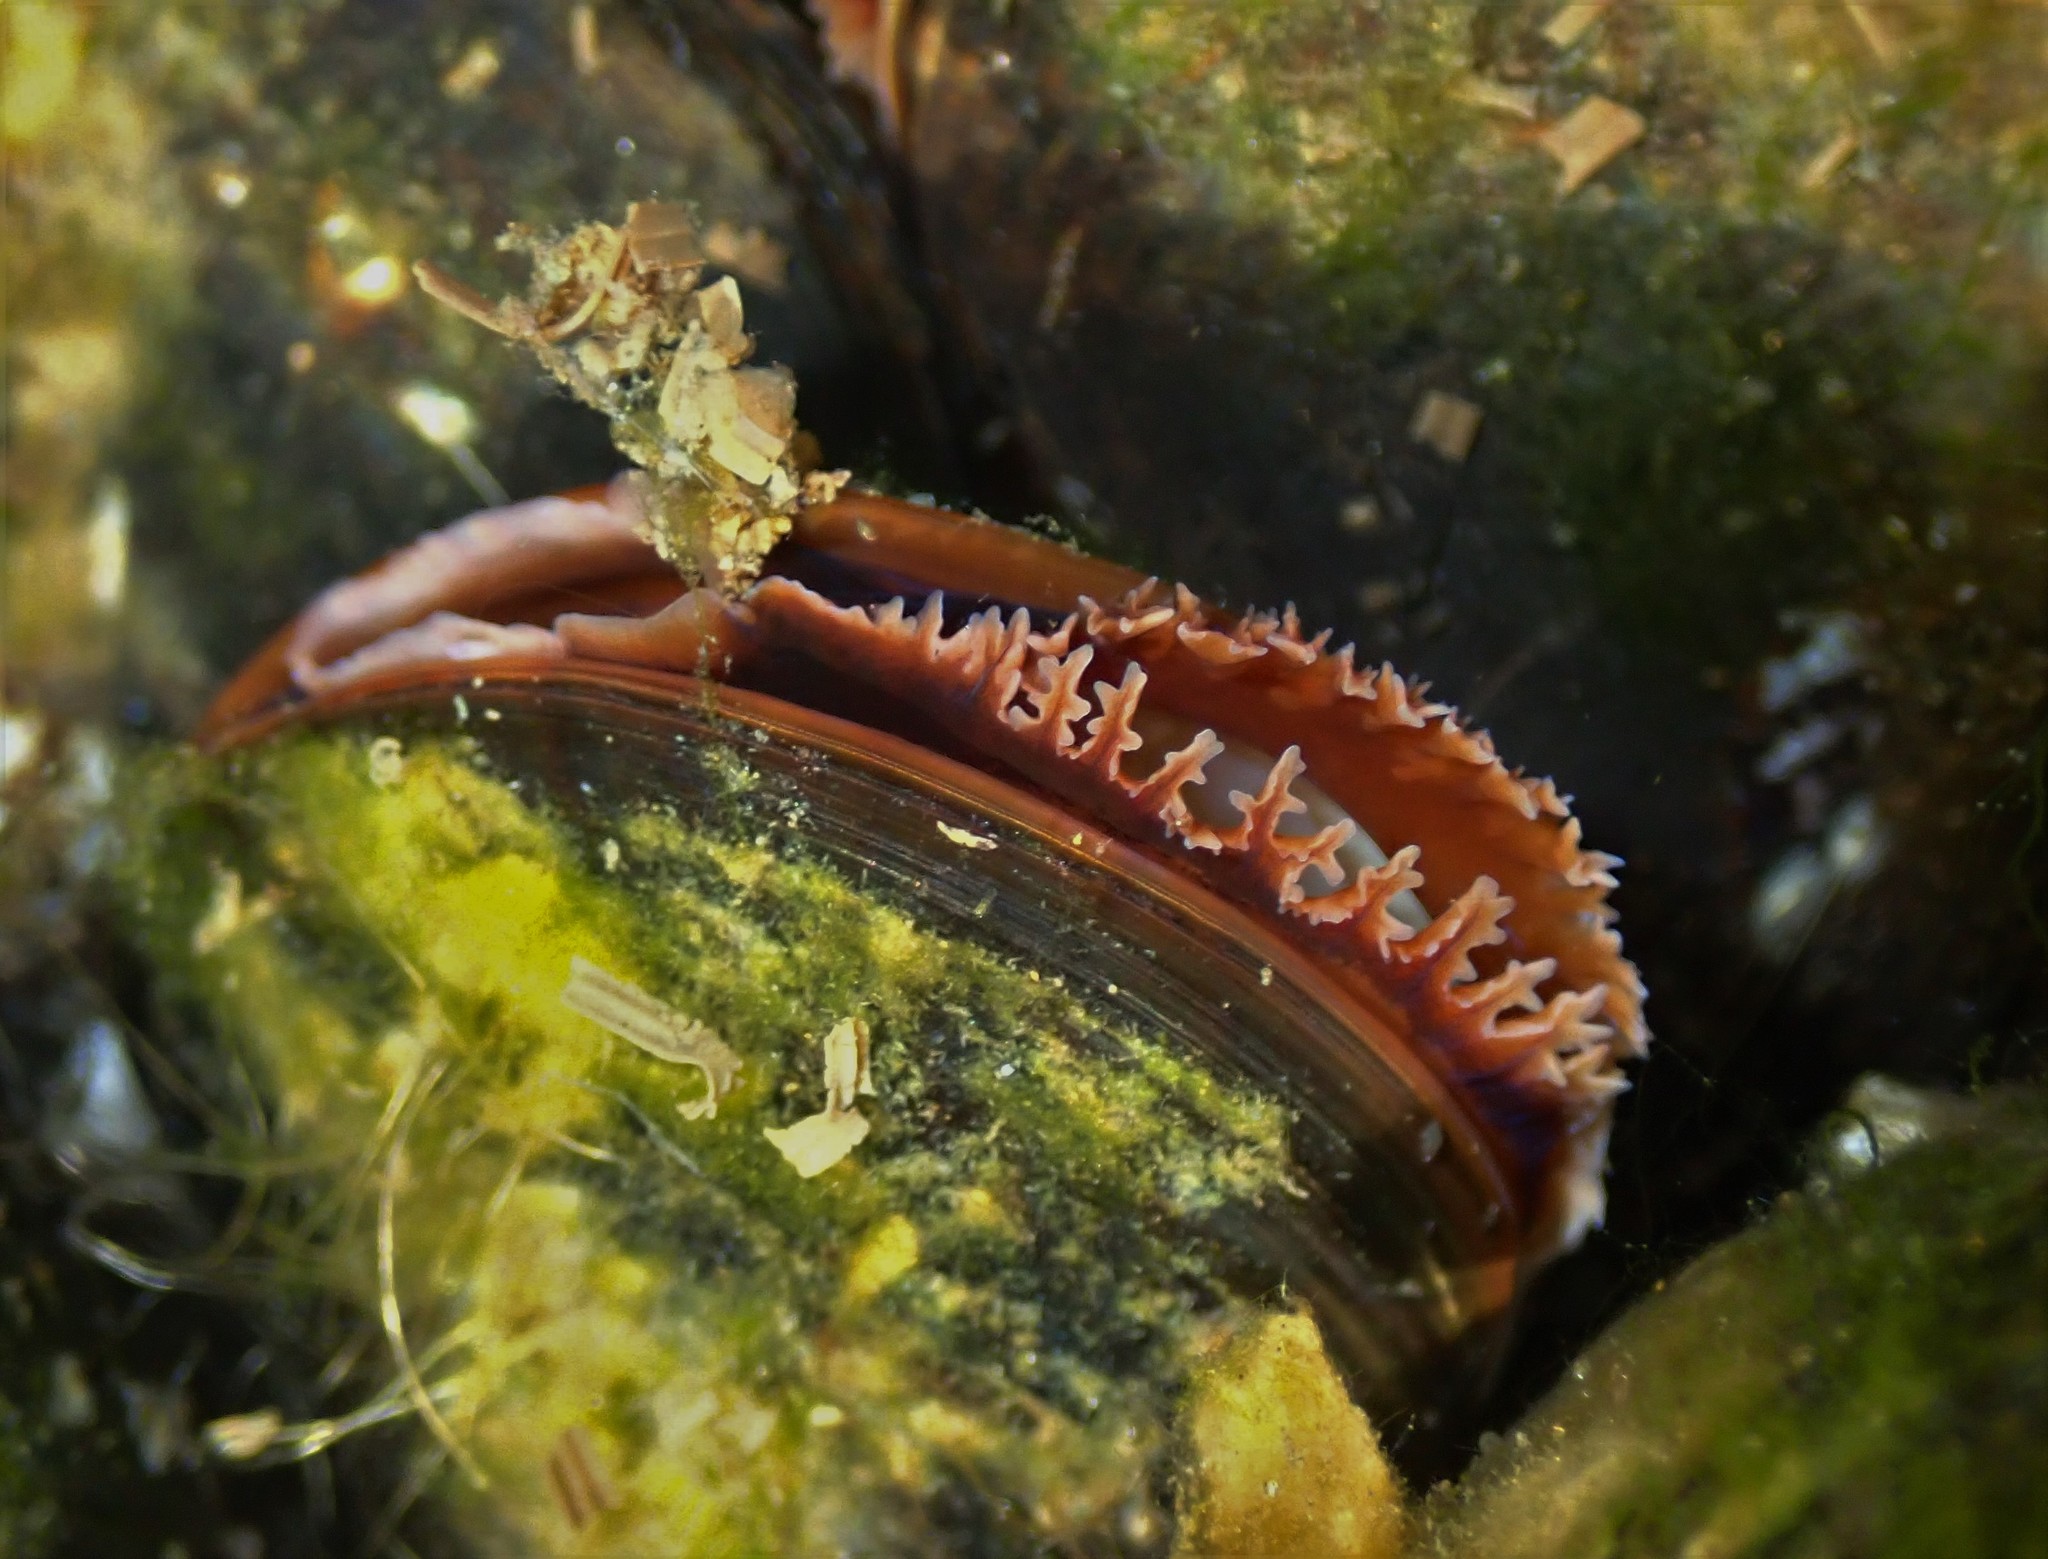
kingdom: Animalia
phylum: Mollusca
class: Bivalvia
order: Mytilida
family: Mytilidae
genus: Mytilus
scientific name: Mytilus edulis
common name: Blue mussel
